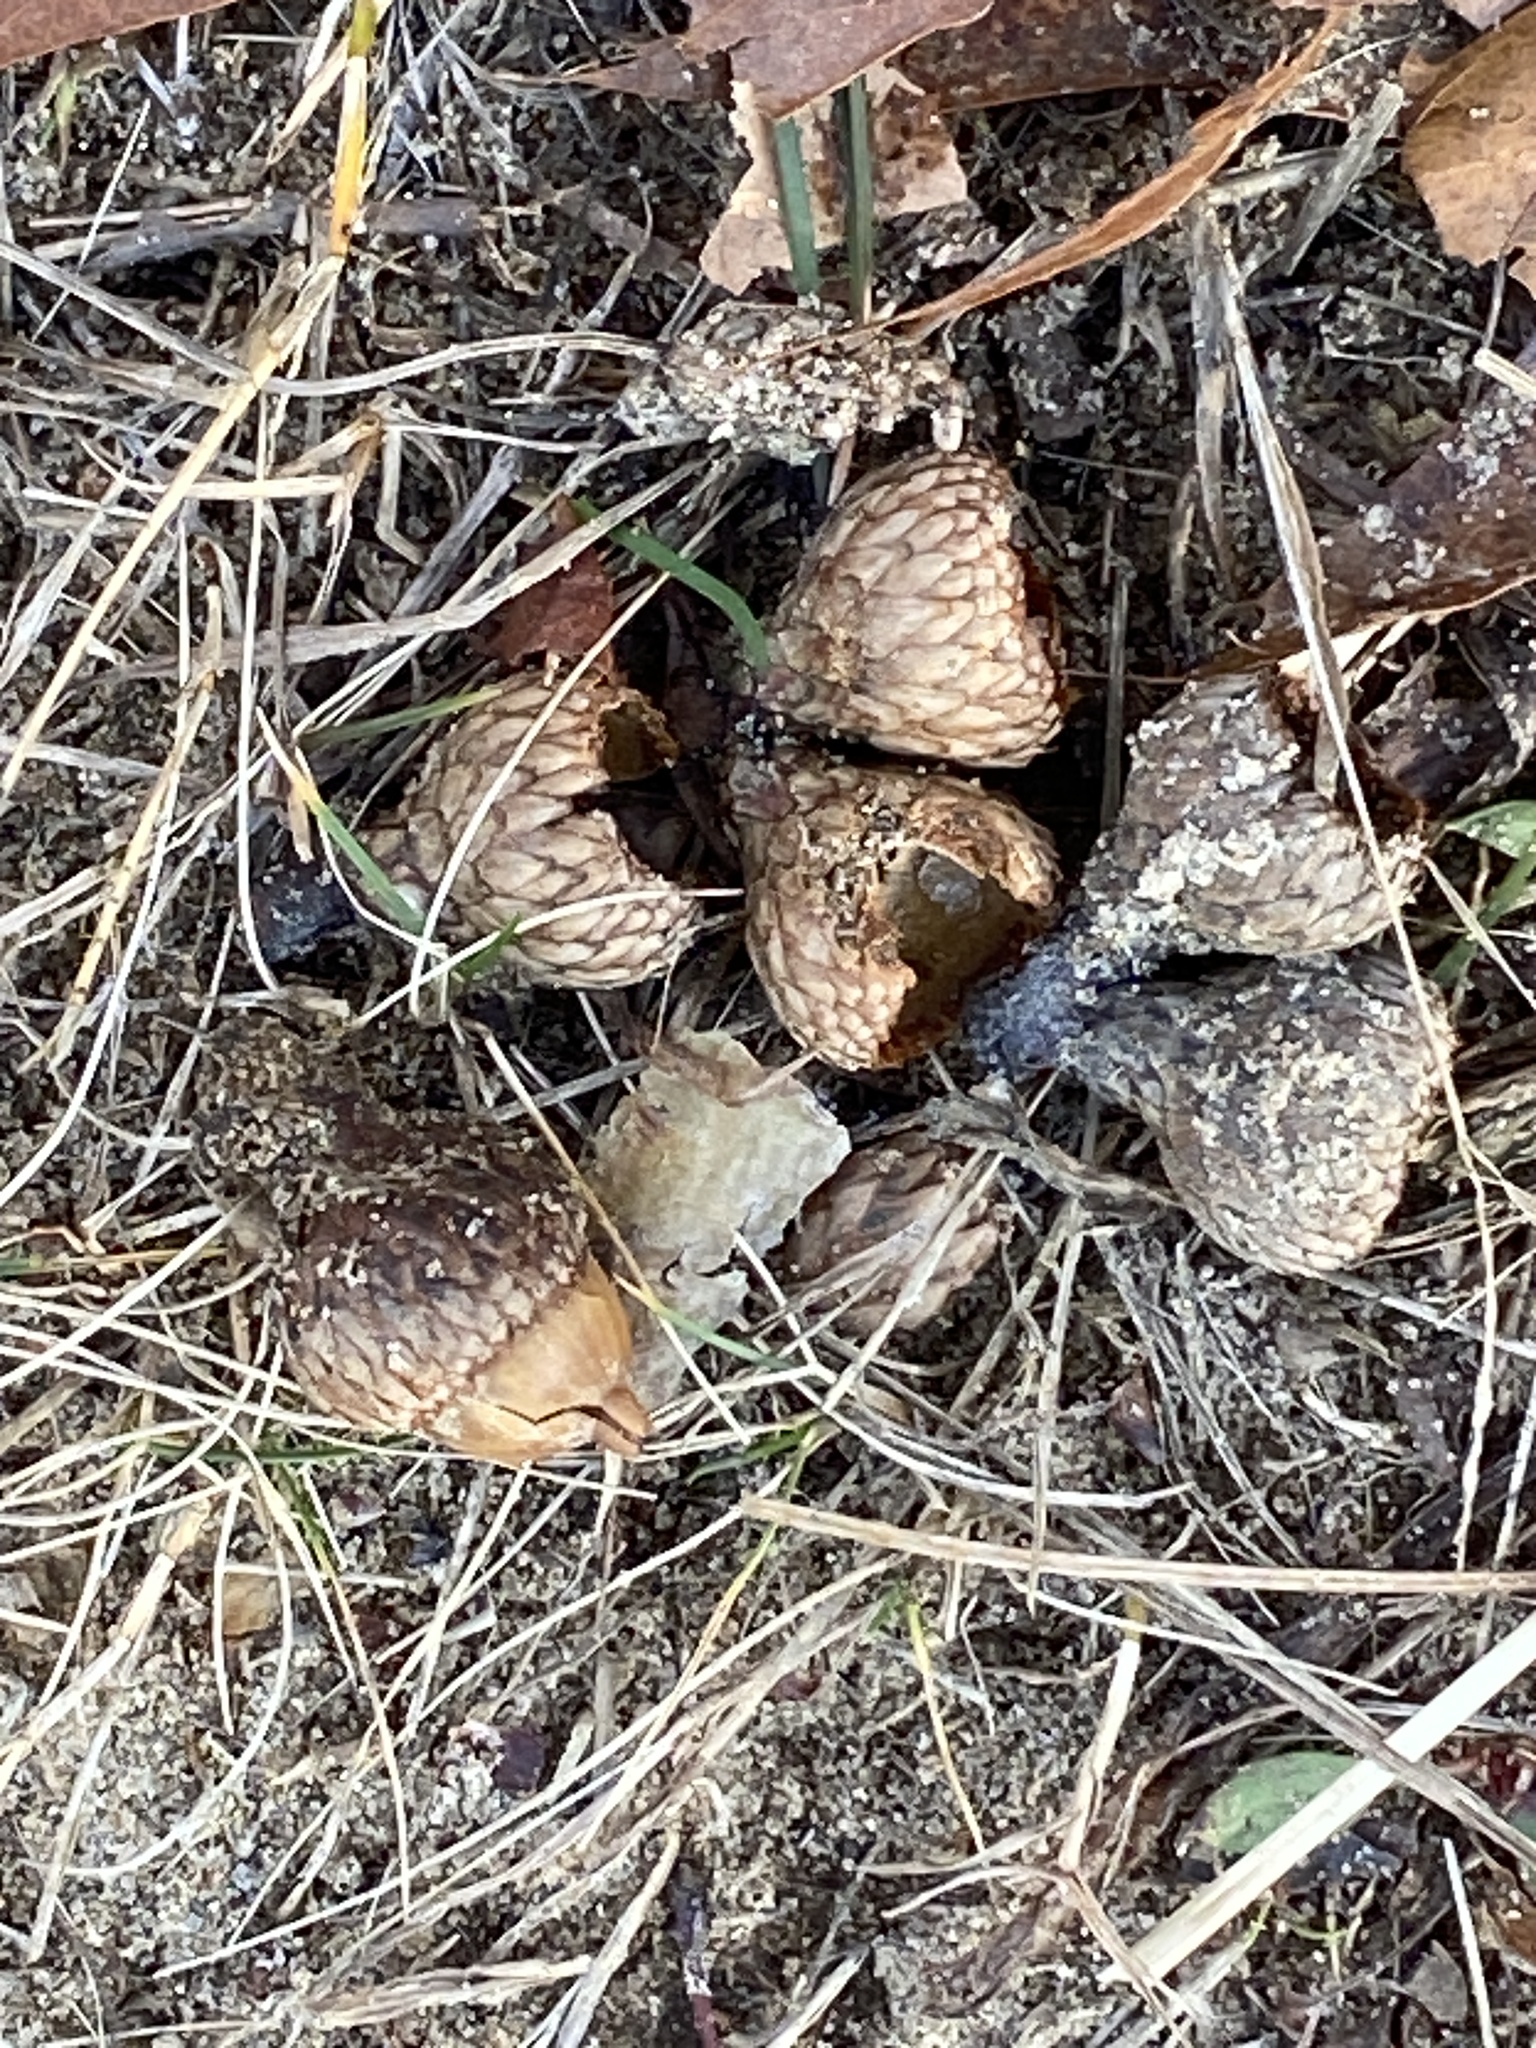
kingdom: Plantae
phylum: Tracheophyta
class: Magnoliopsida
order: Fagales
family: Fagaceae
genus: Quercus
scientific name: Quercus velutina
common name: Black oak
